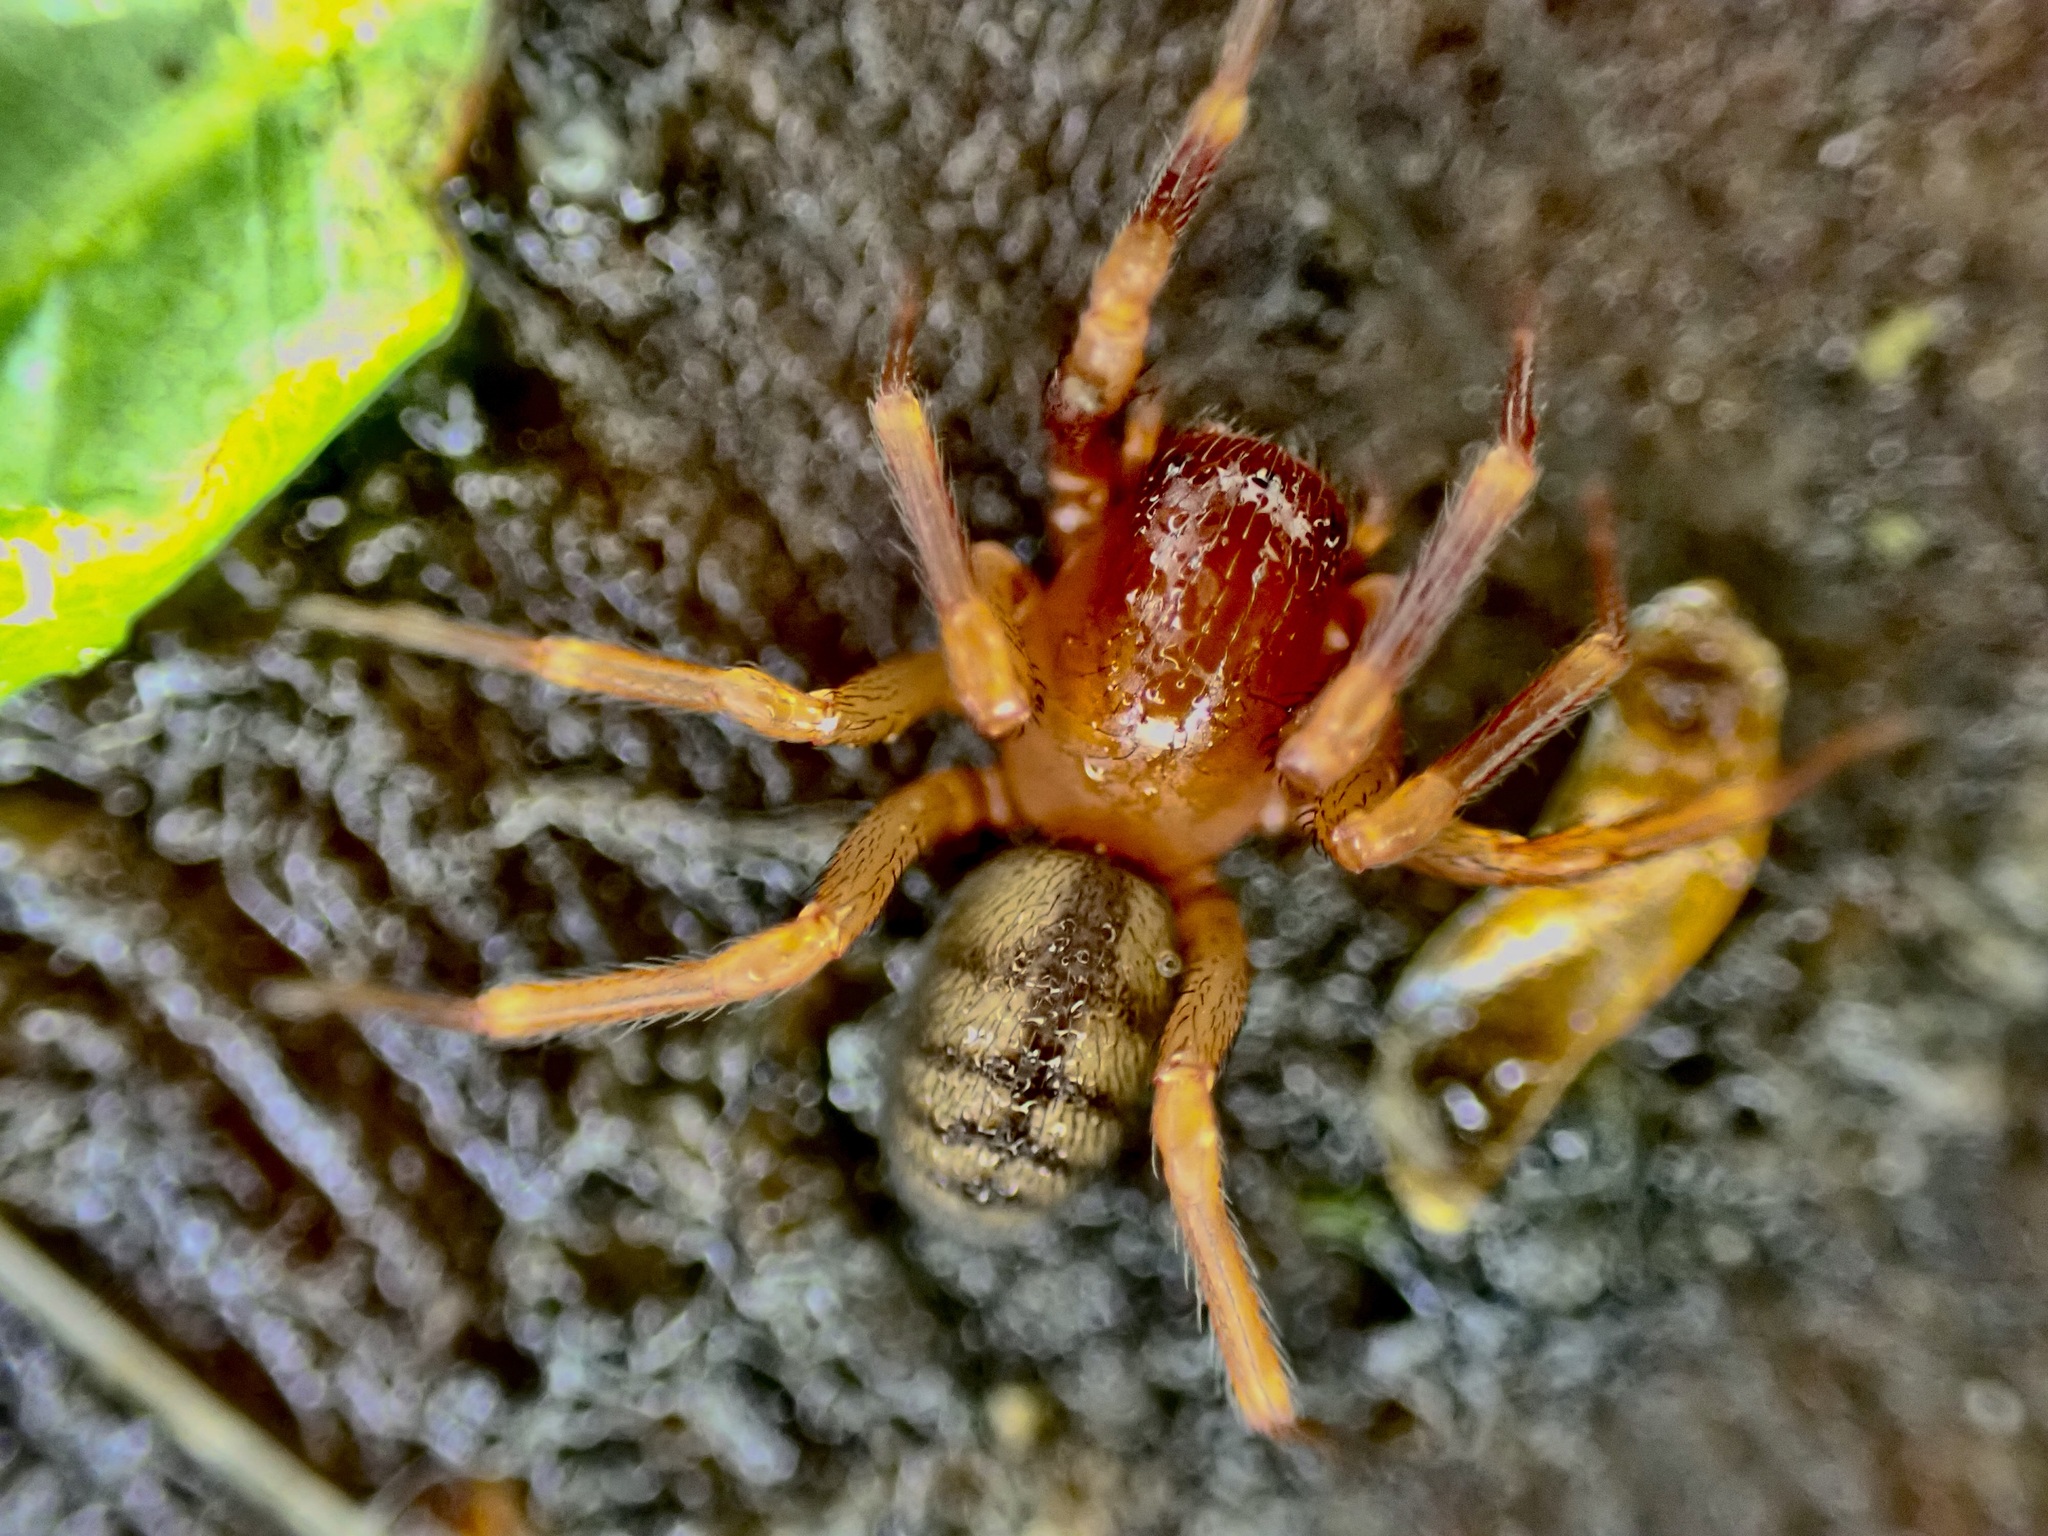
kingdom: Animalia
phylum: Arthropoda
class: Arachnida
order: Araneae
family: Periegopidae
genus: Periegops
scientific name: Periegops suterii
